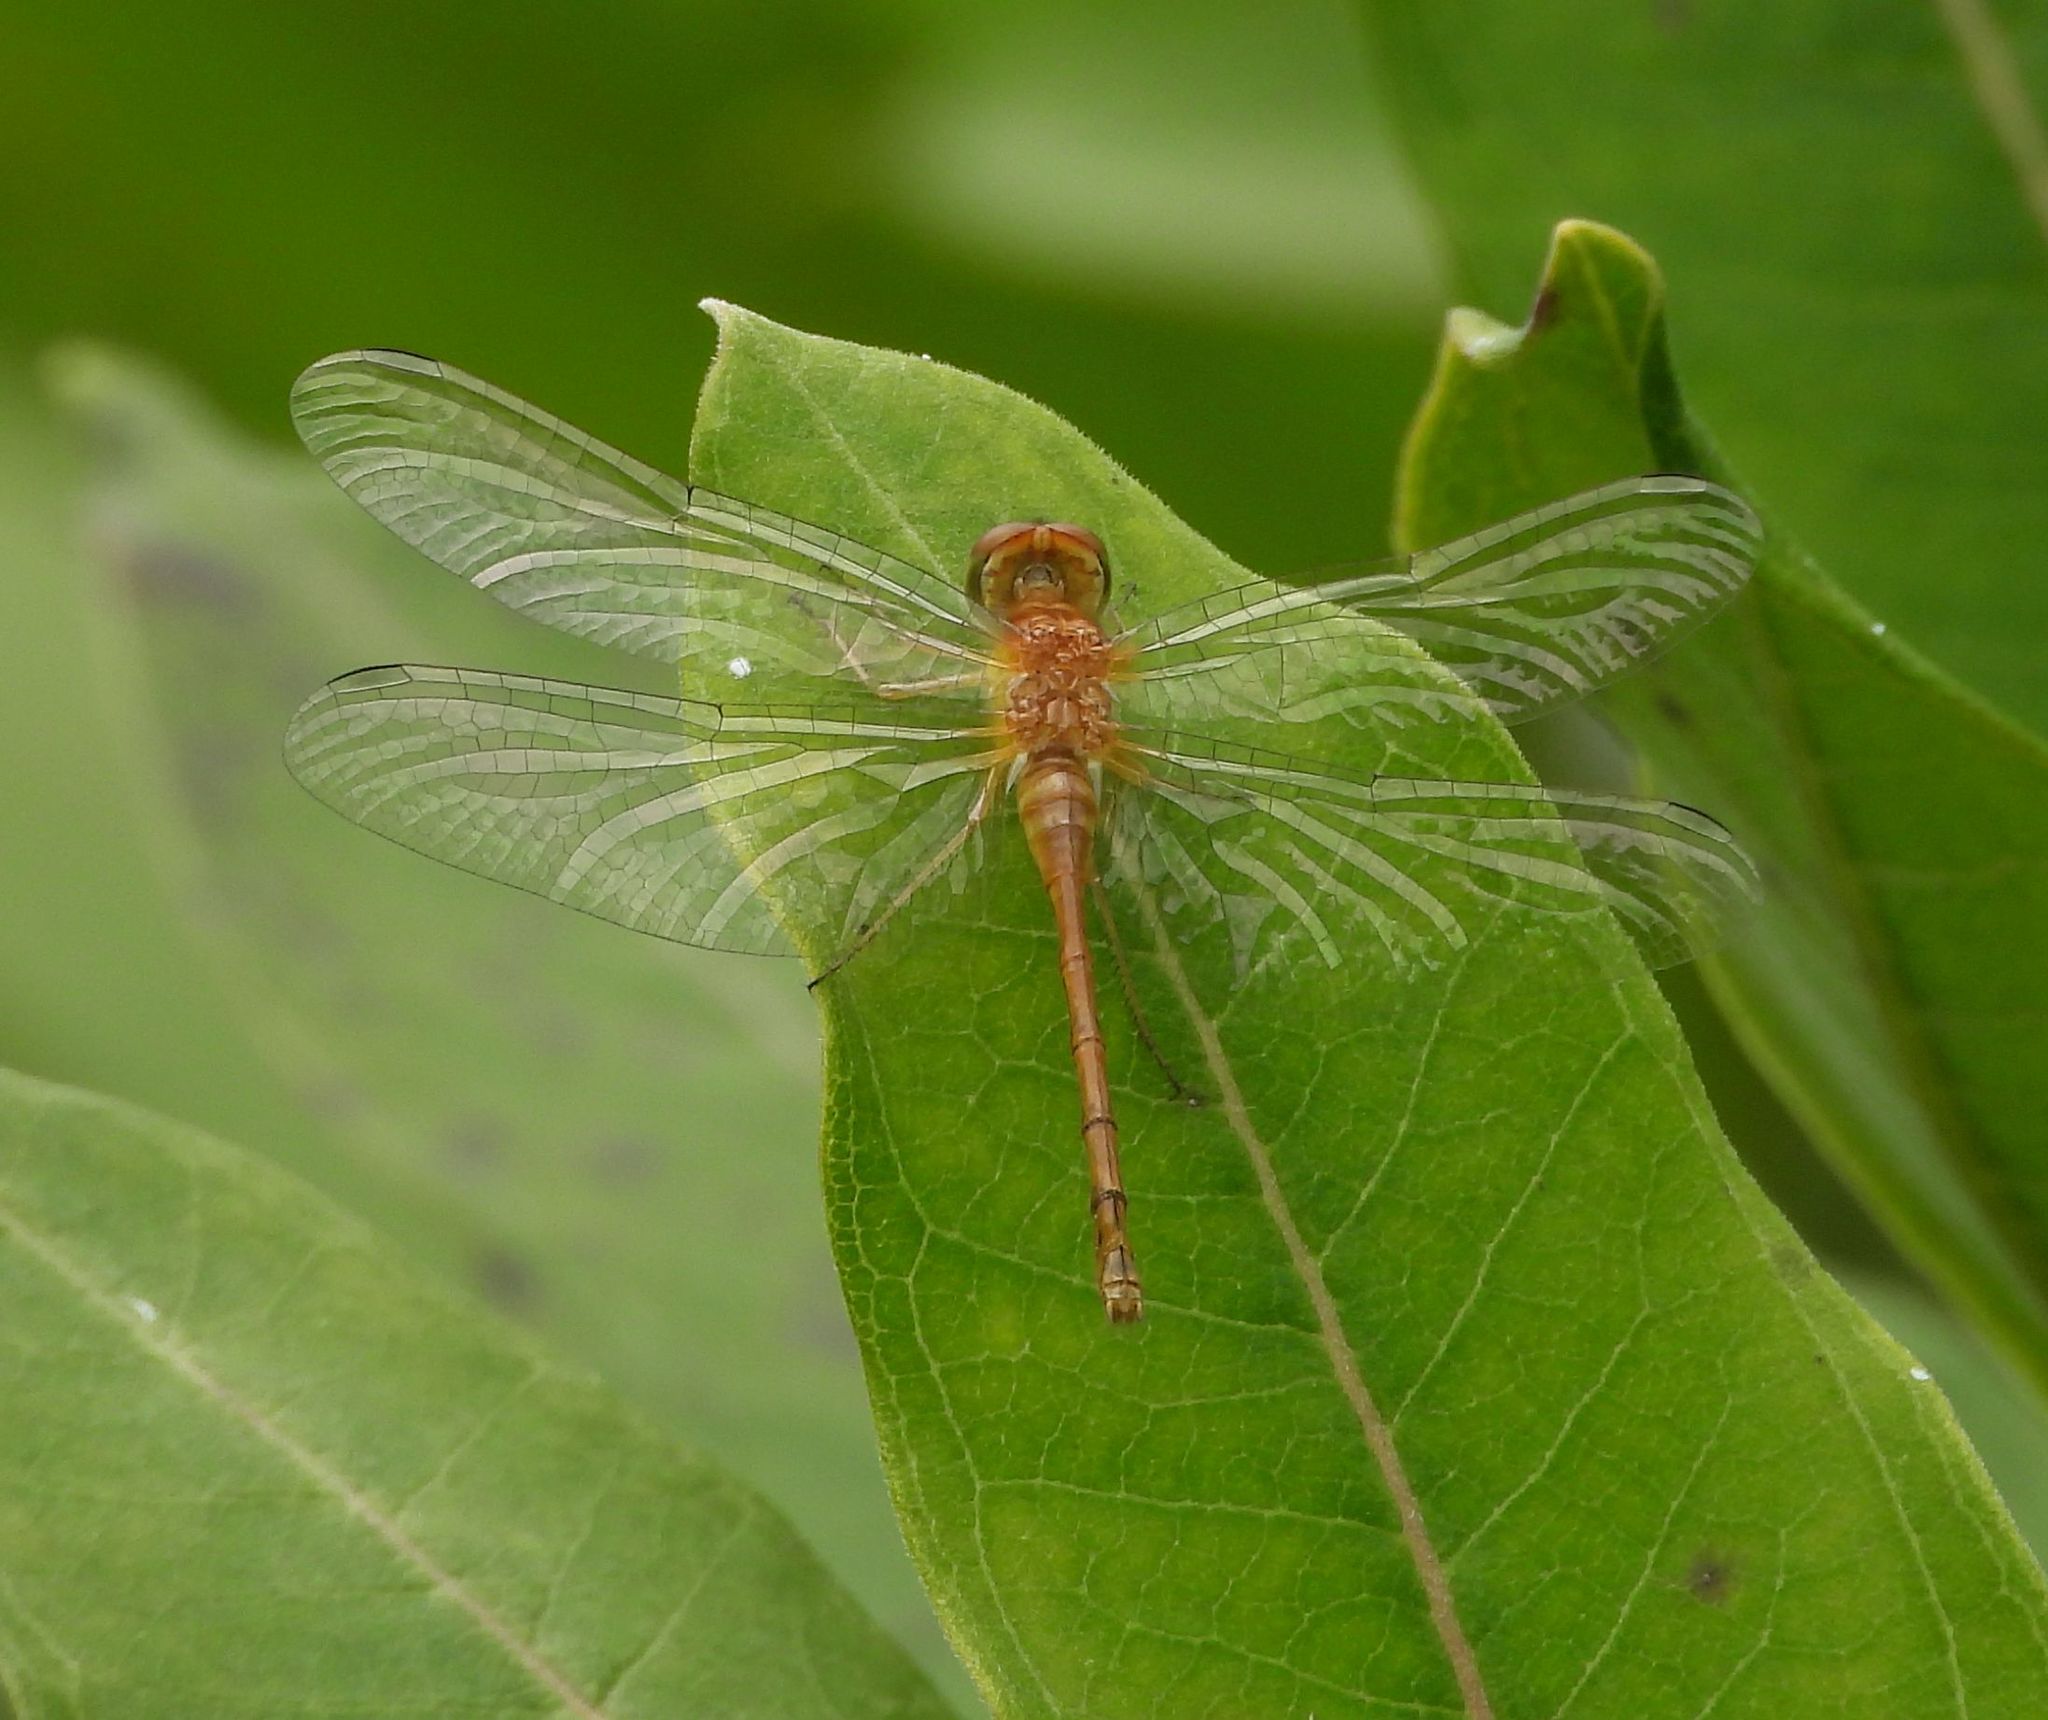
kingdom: Animalia
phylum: Arthropoda
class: Insecta
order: Odonata
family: Libellulidae
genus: Sympetrum
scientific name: Sympetrum vicinum
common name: Autumn meadowhawk
